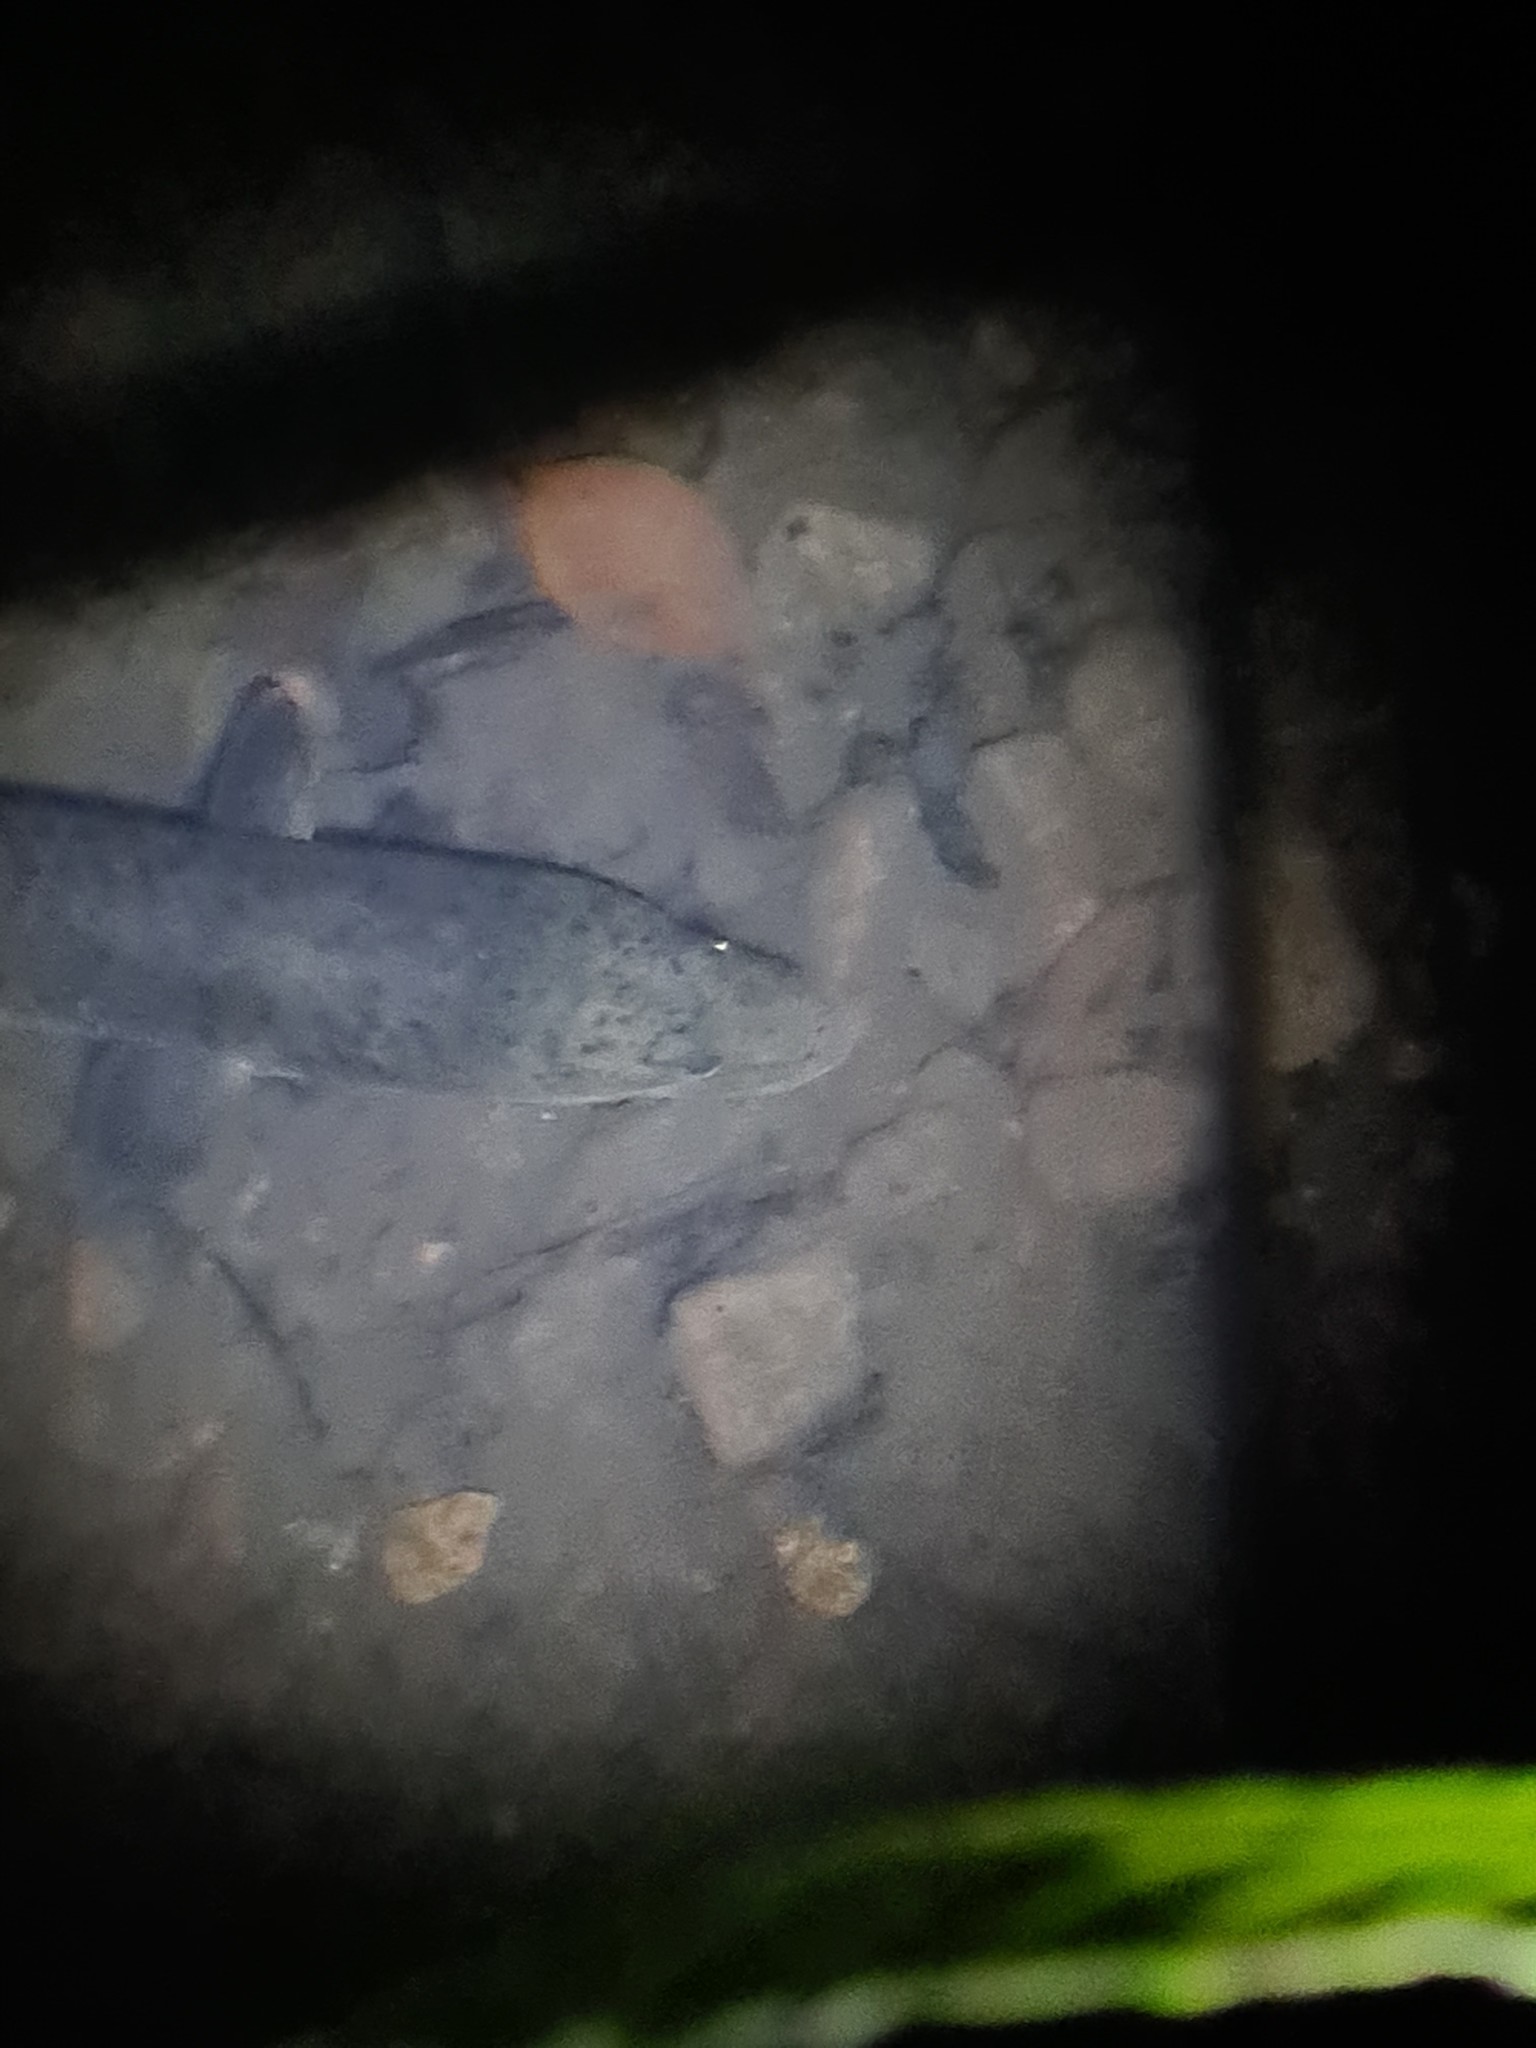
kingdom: Animalia
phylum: Chordata
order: Anguilliformes
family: Anguillidae
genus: Anguilla
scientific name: Anguilla reinhardtii
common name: Longfin eel
